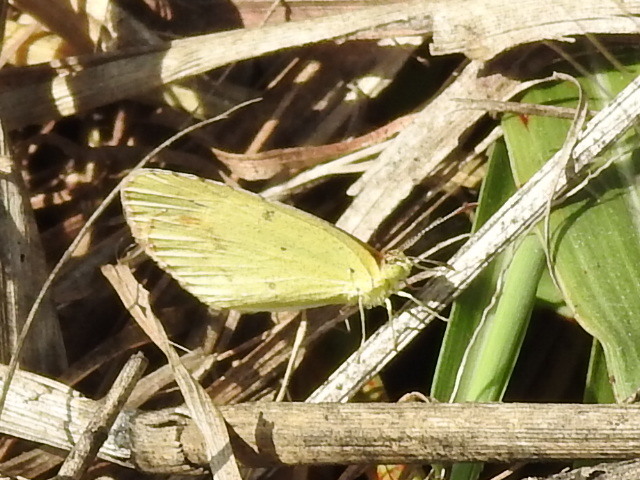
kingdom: Animalia
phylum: Arthropoda
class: Insecta
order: Lepidoptera
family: Pieridae
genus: Pyrisitia
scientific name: Pyrisitia lisa
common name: Little yellow
